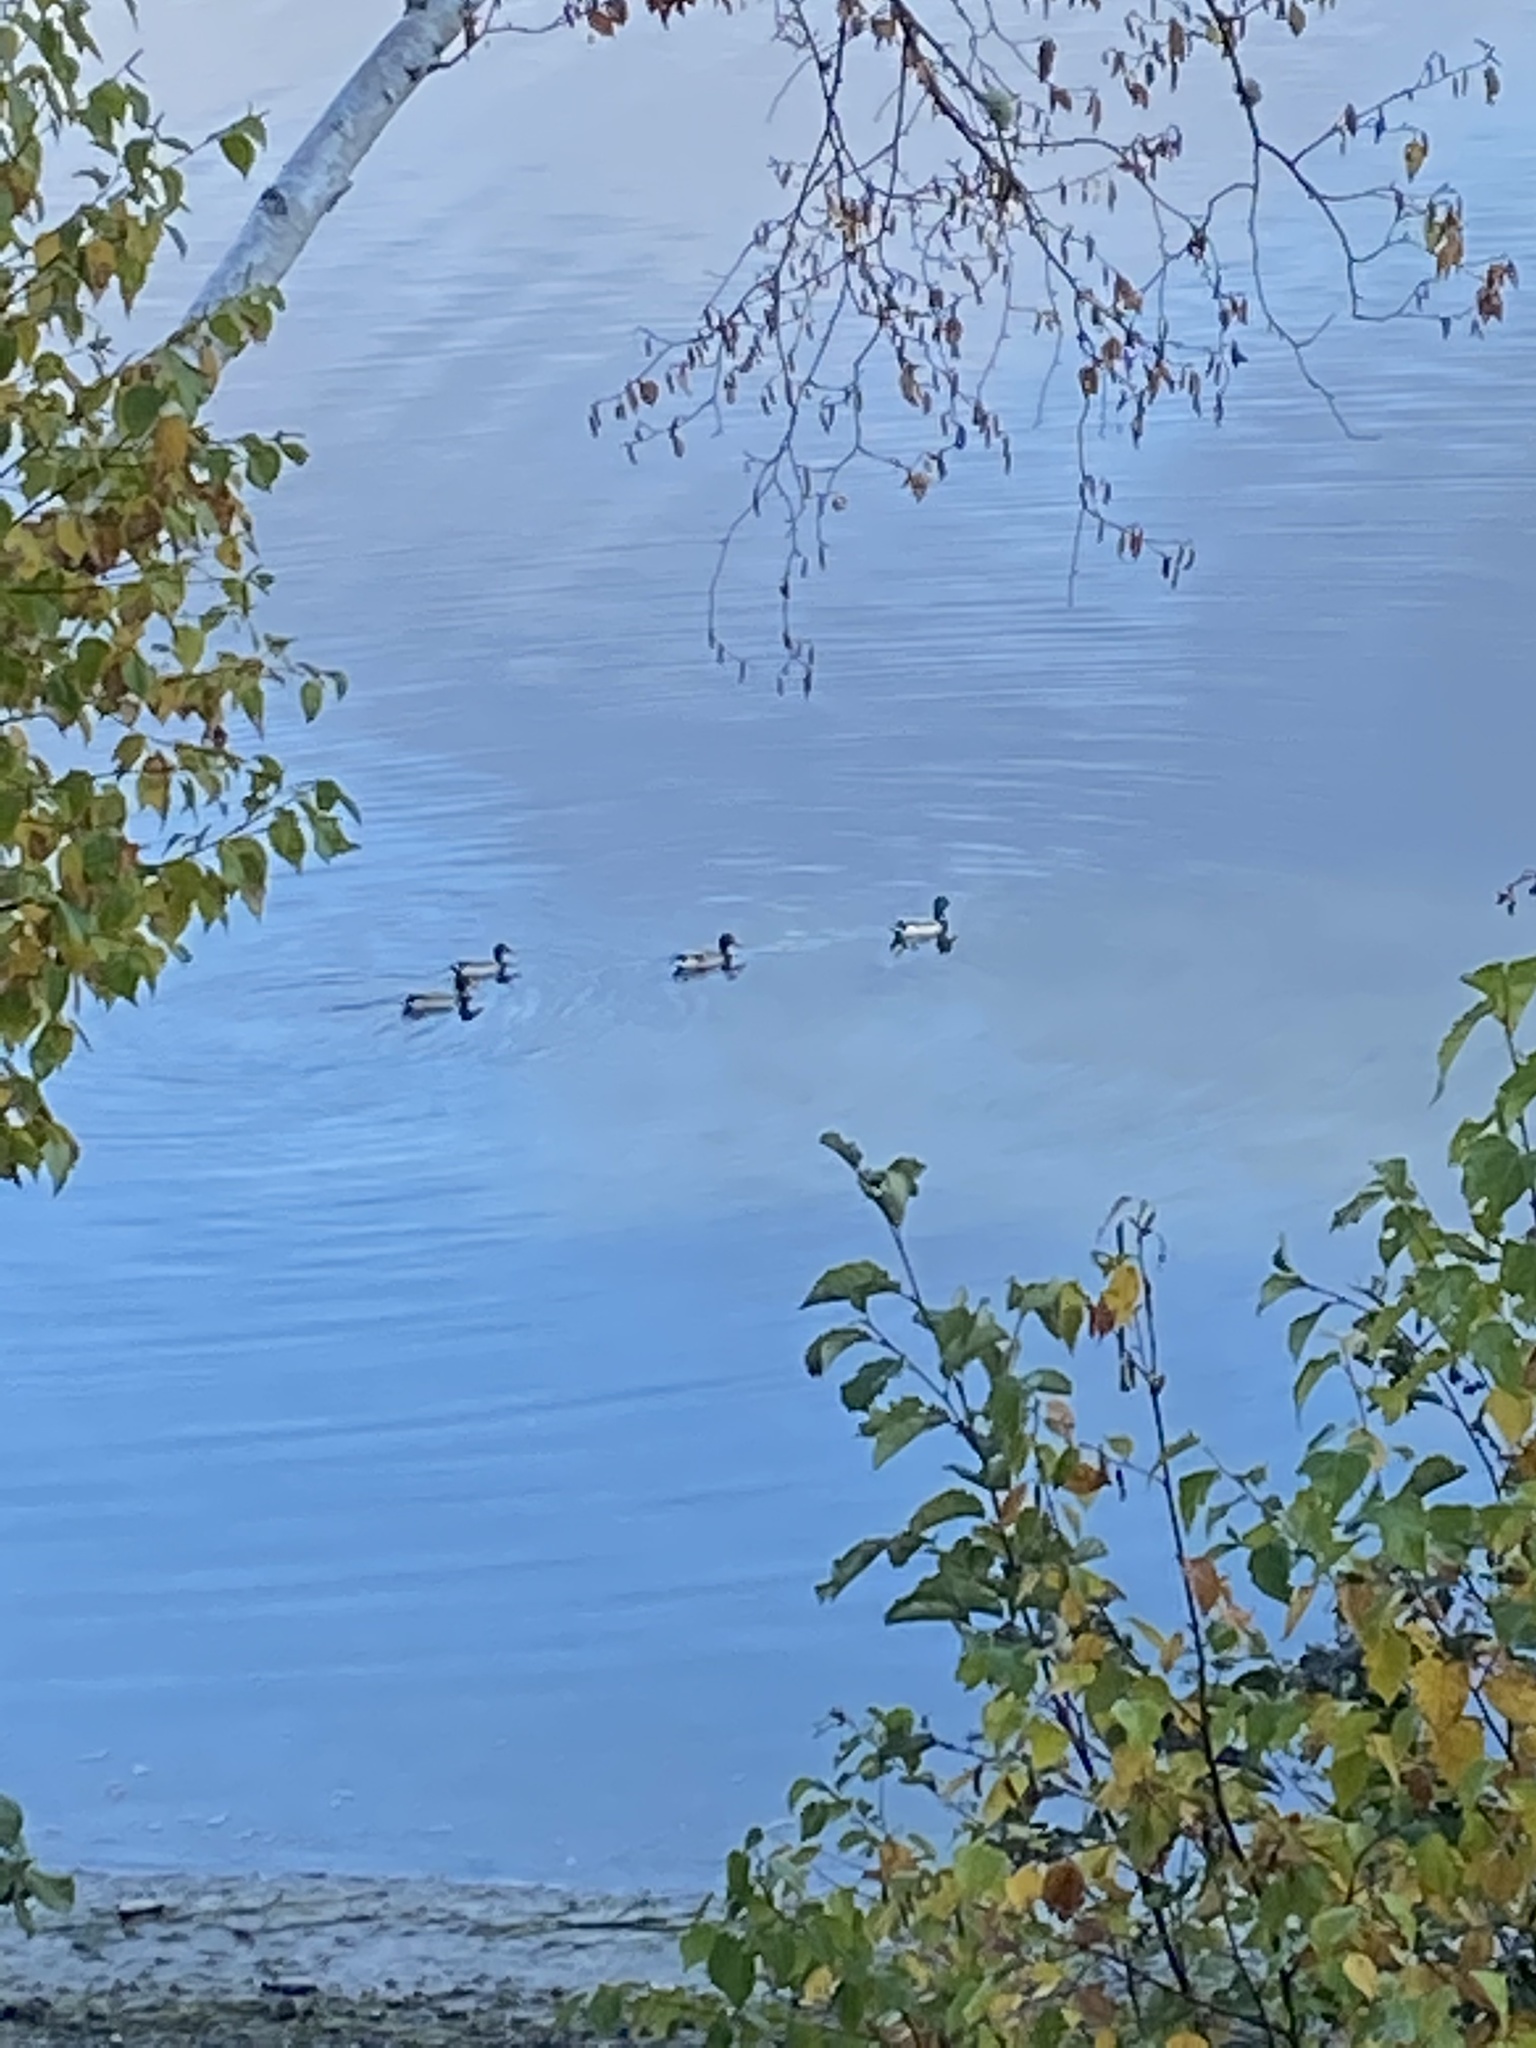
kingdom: Animalia
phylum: Chordata
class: Aves
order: Anseriformes
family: Anatidae
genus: Anas
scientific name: Anas platyrhynchos
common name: Mallard
